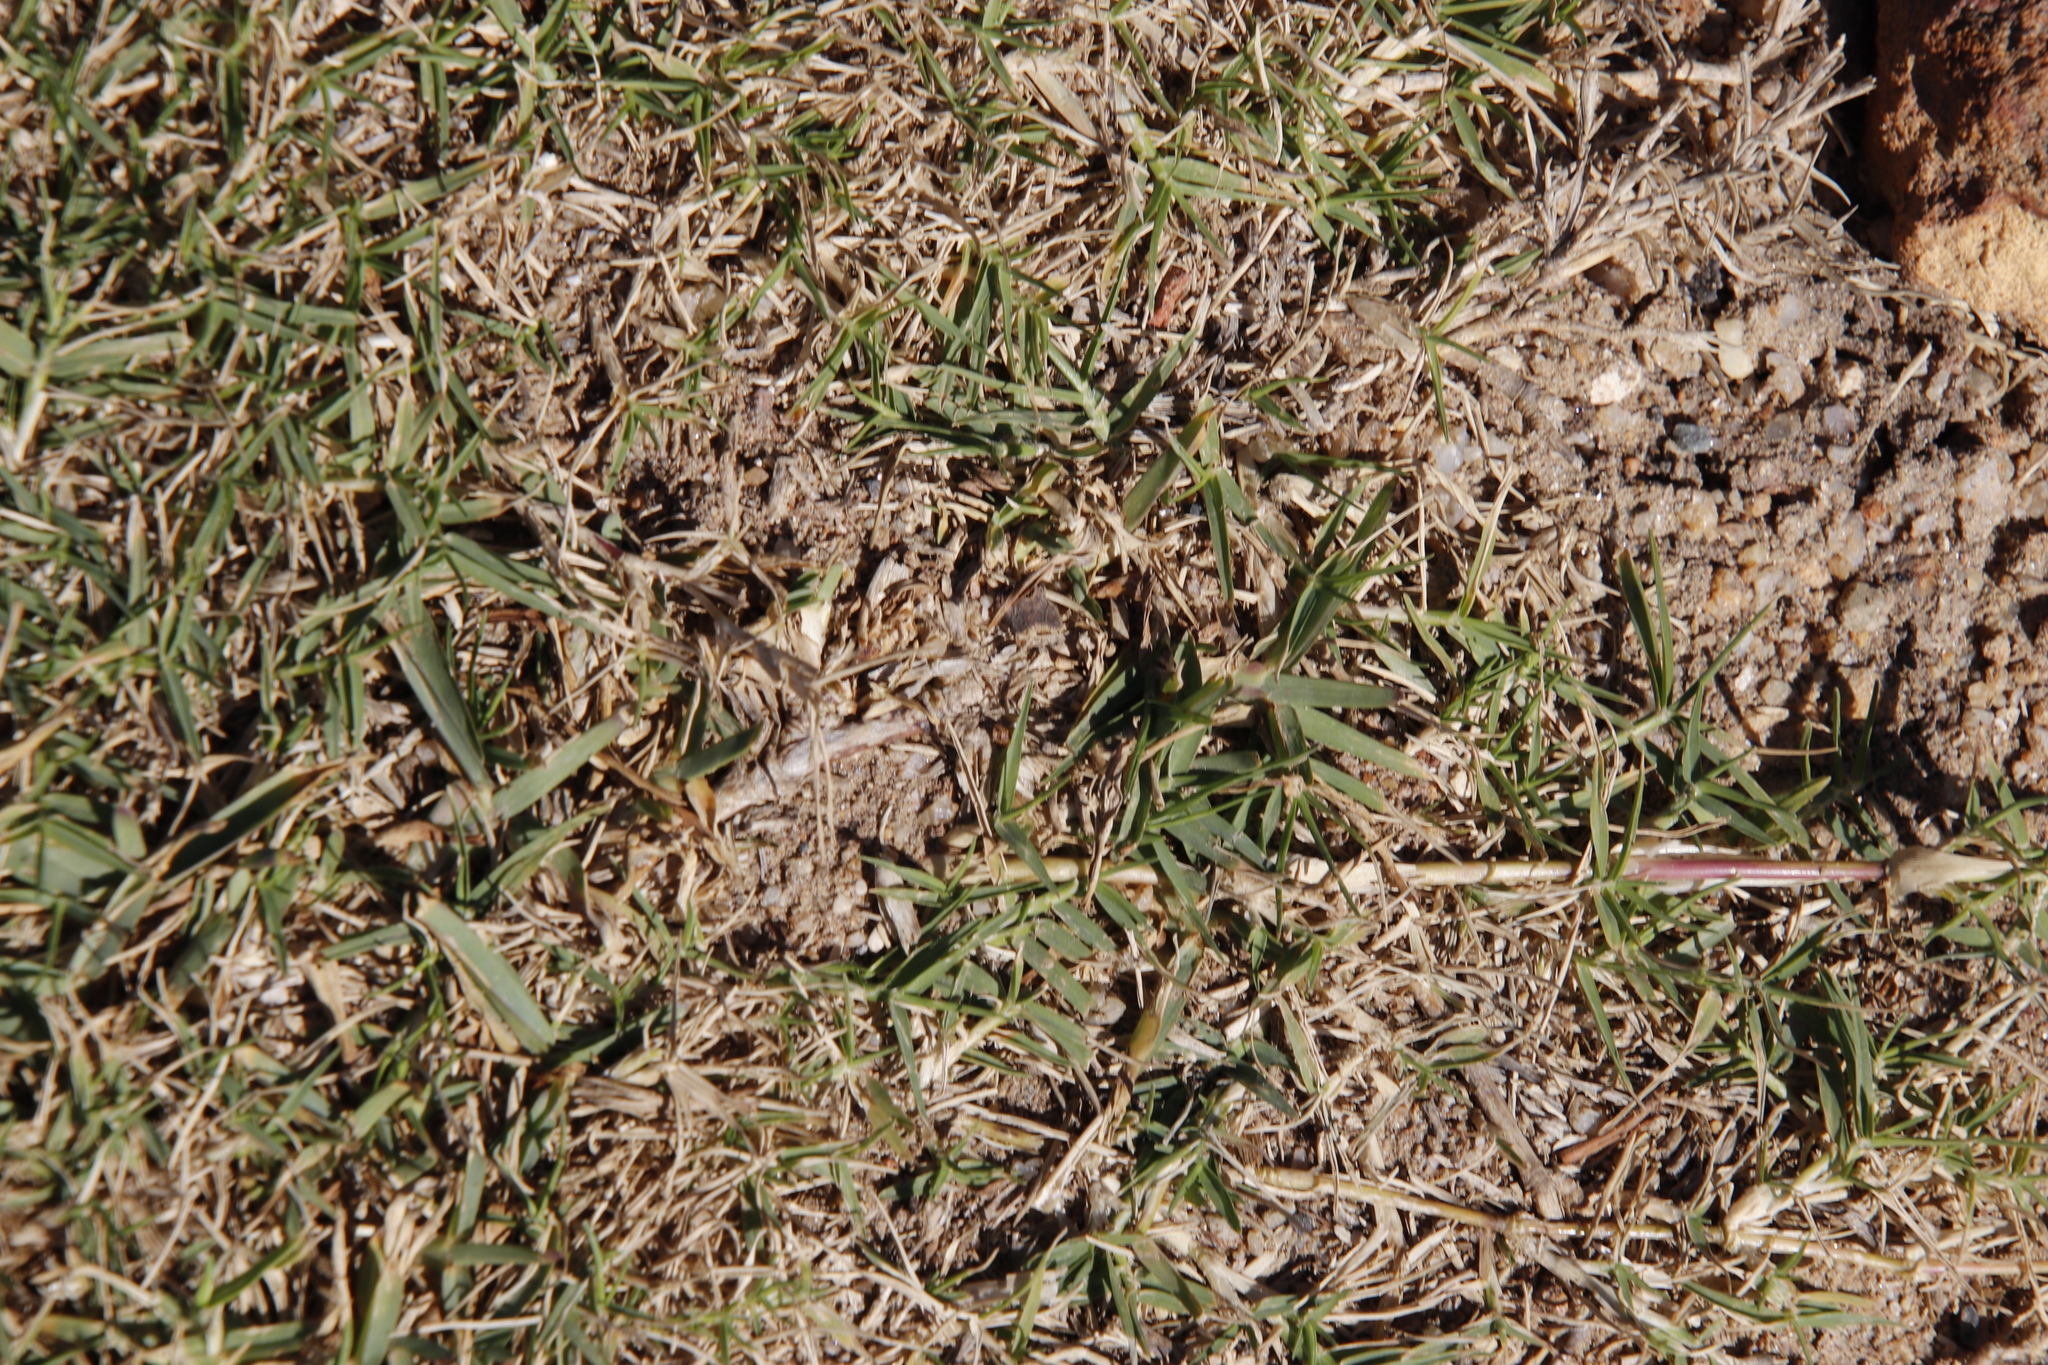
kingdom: Plantae
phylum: Tracheophyta
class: Liliopsida
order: Poales
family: Poaceae
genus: Cynodon
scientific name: Cynodon dactylon
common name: Bermuda grass
